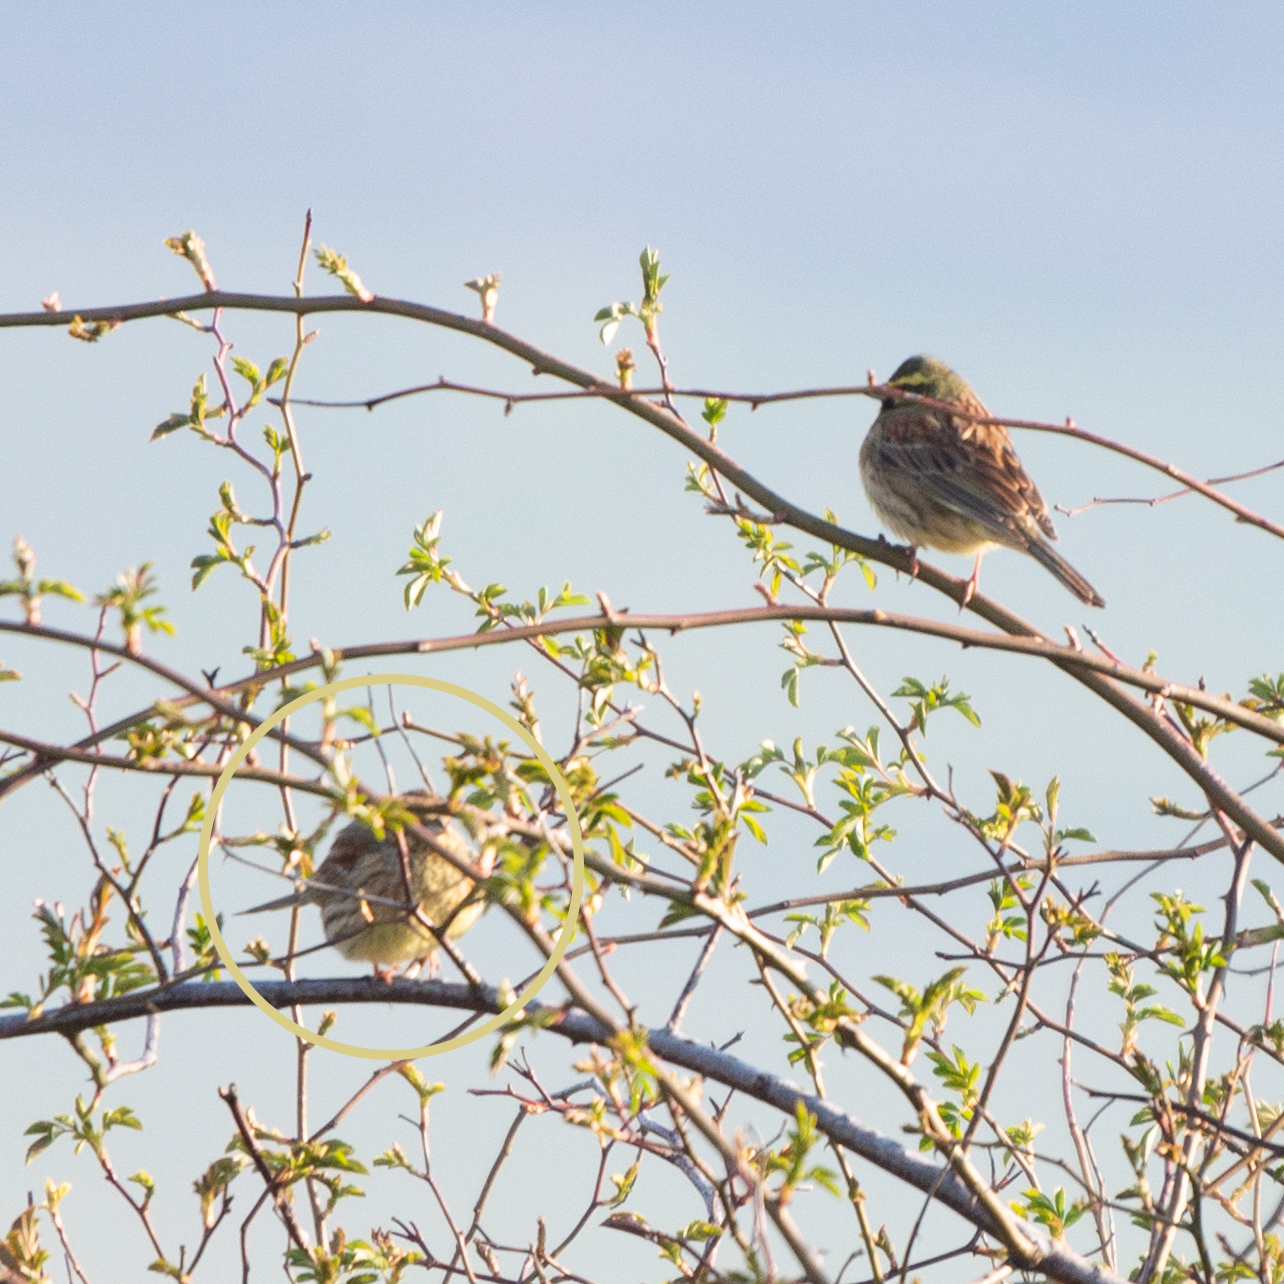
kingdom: Animalia
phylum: Chordata
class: Aves
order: Passeriformes
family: Emberizidae
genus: Emberiza
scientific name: Emberiza cirlus
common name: Cirl bunting
